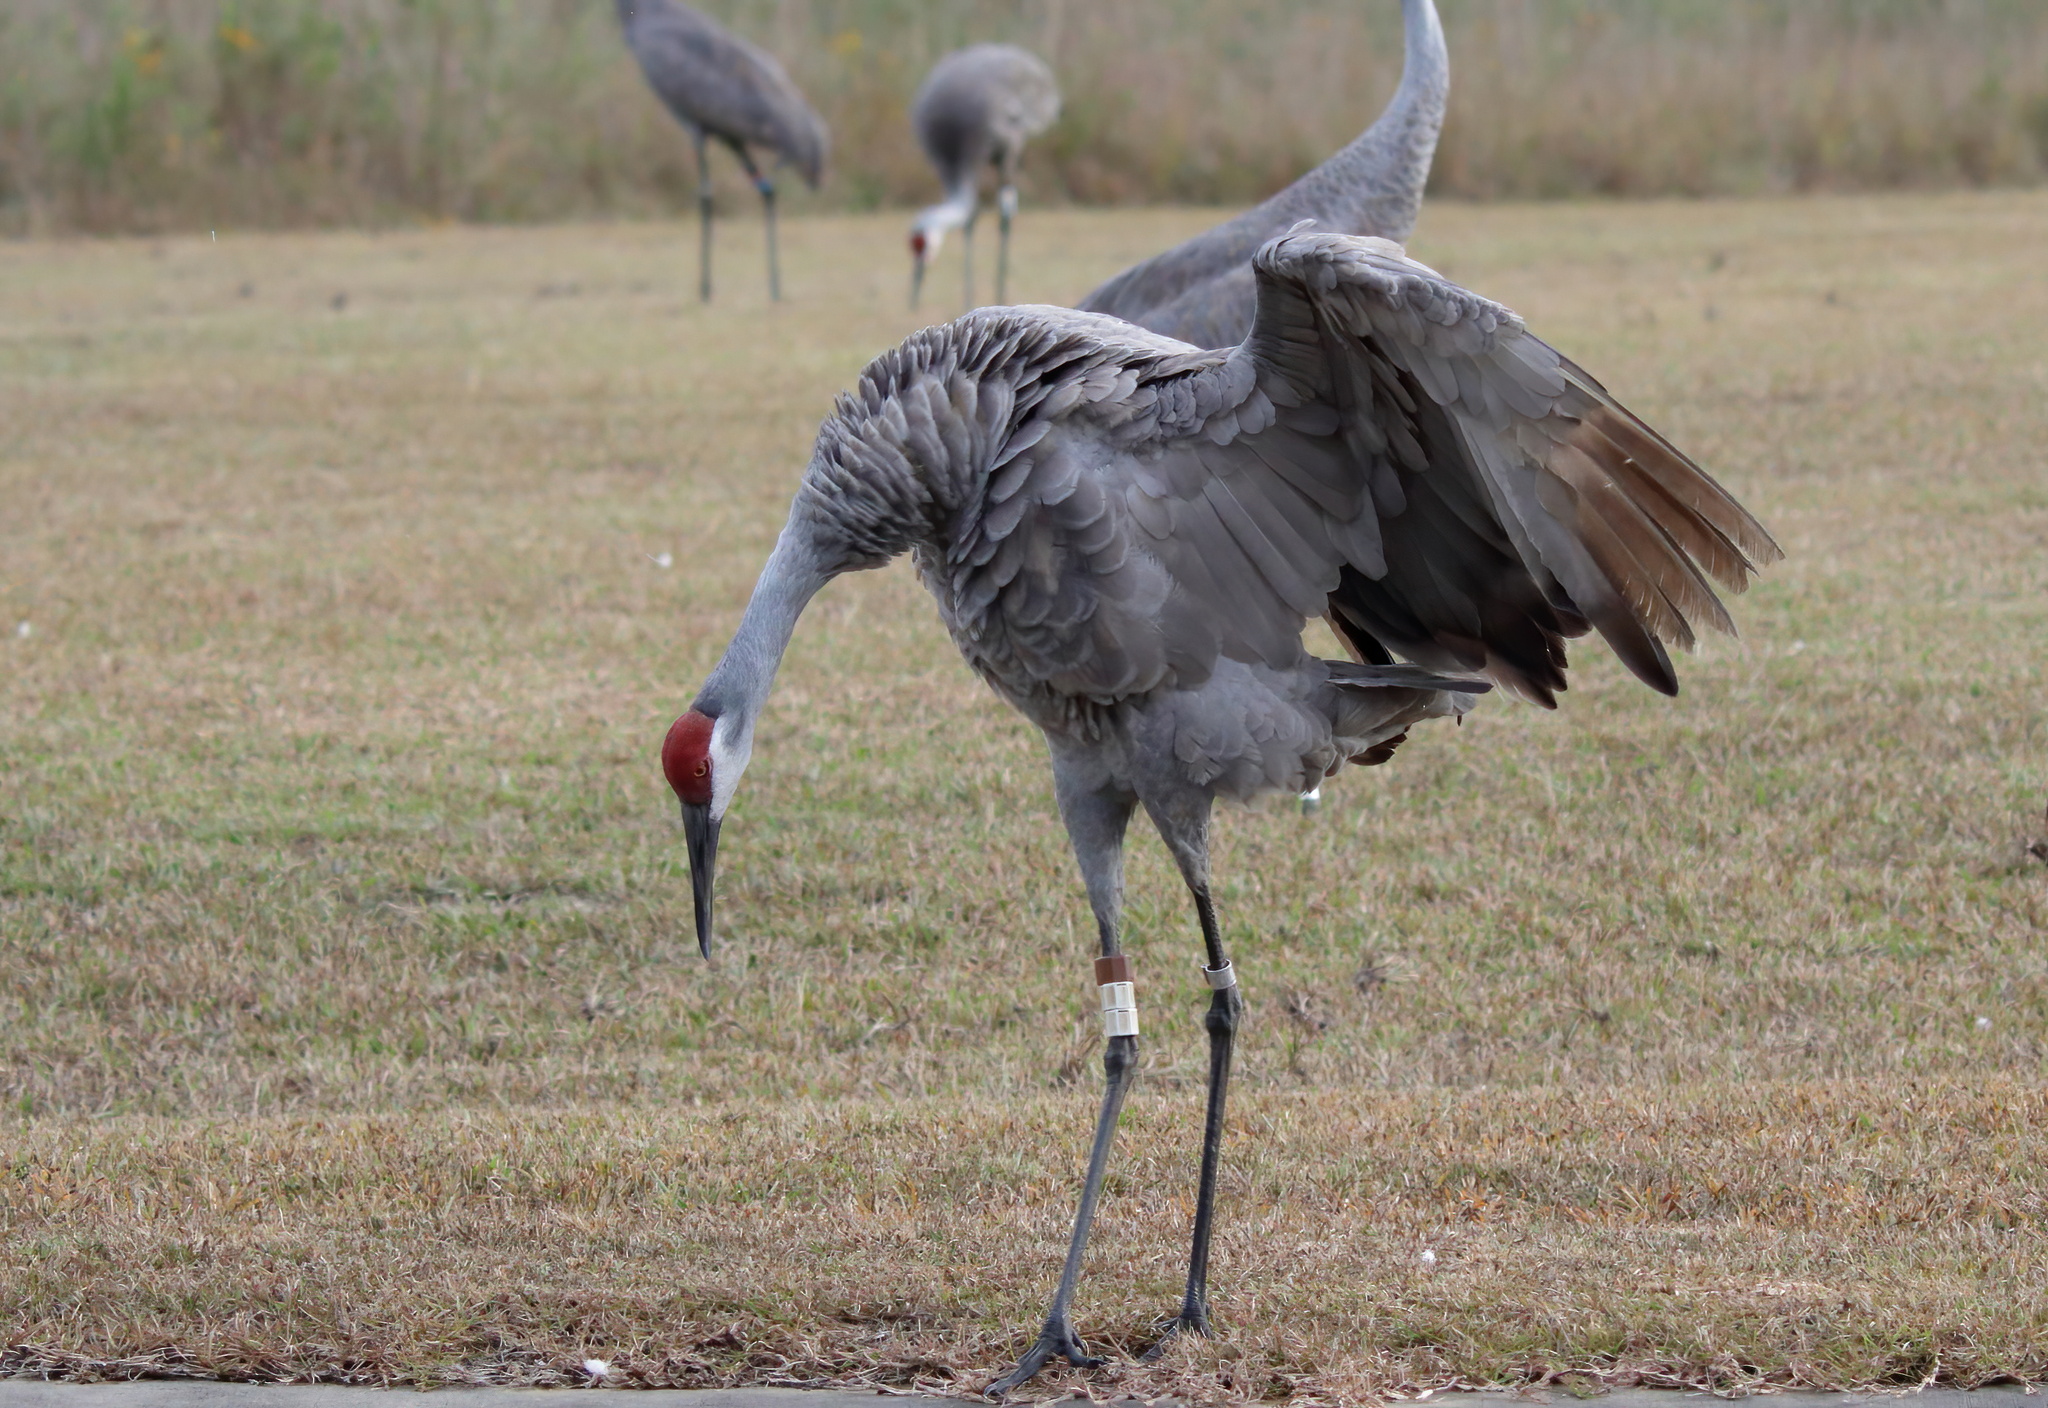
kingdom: Animalia
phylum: Chordata
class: Aves
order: Gruiformes
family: Gruidae
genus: Grus
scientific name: Grus canadensis
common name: Sandhill crane
